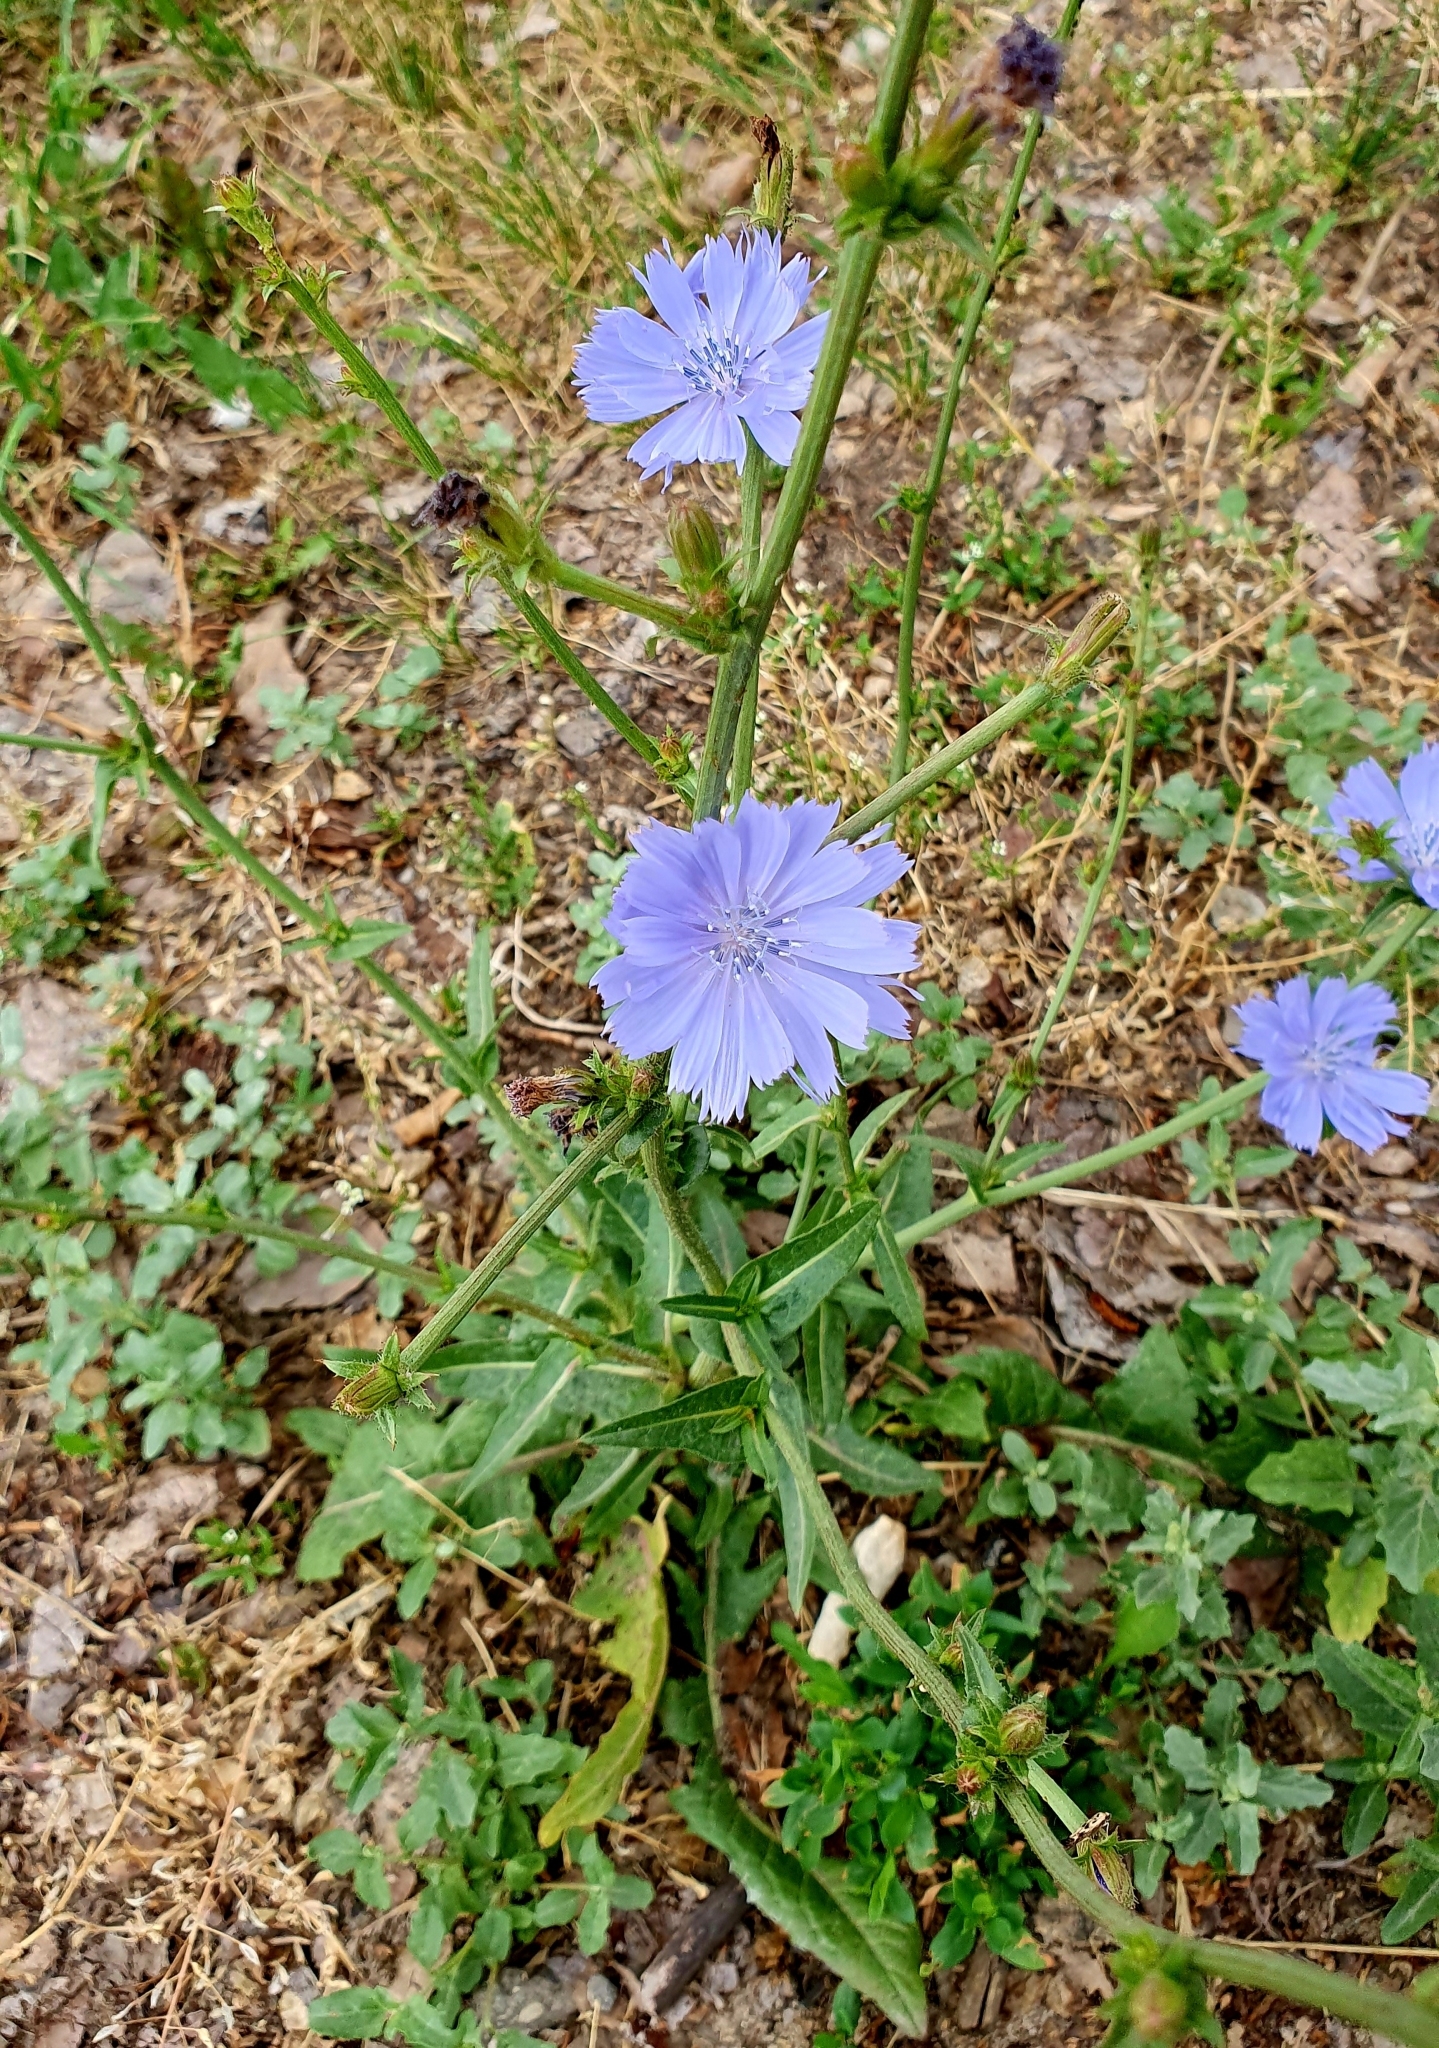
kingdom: Plantae
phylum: Tracheophyta
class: Magnoliopsida
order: Asterales
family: Asteraceae
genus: Cichorium
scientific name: Cichorium intybus
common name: Chicory
